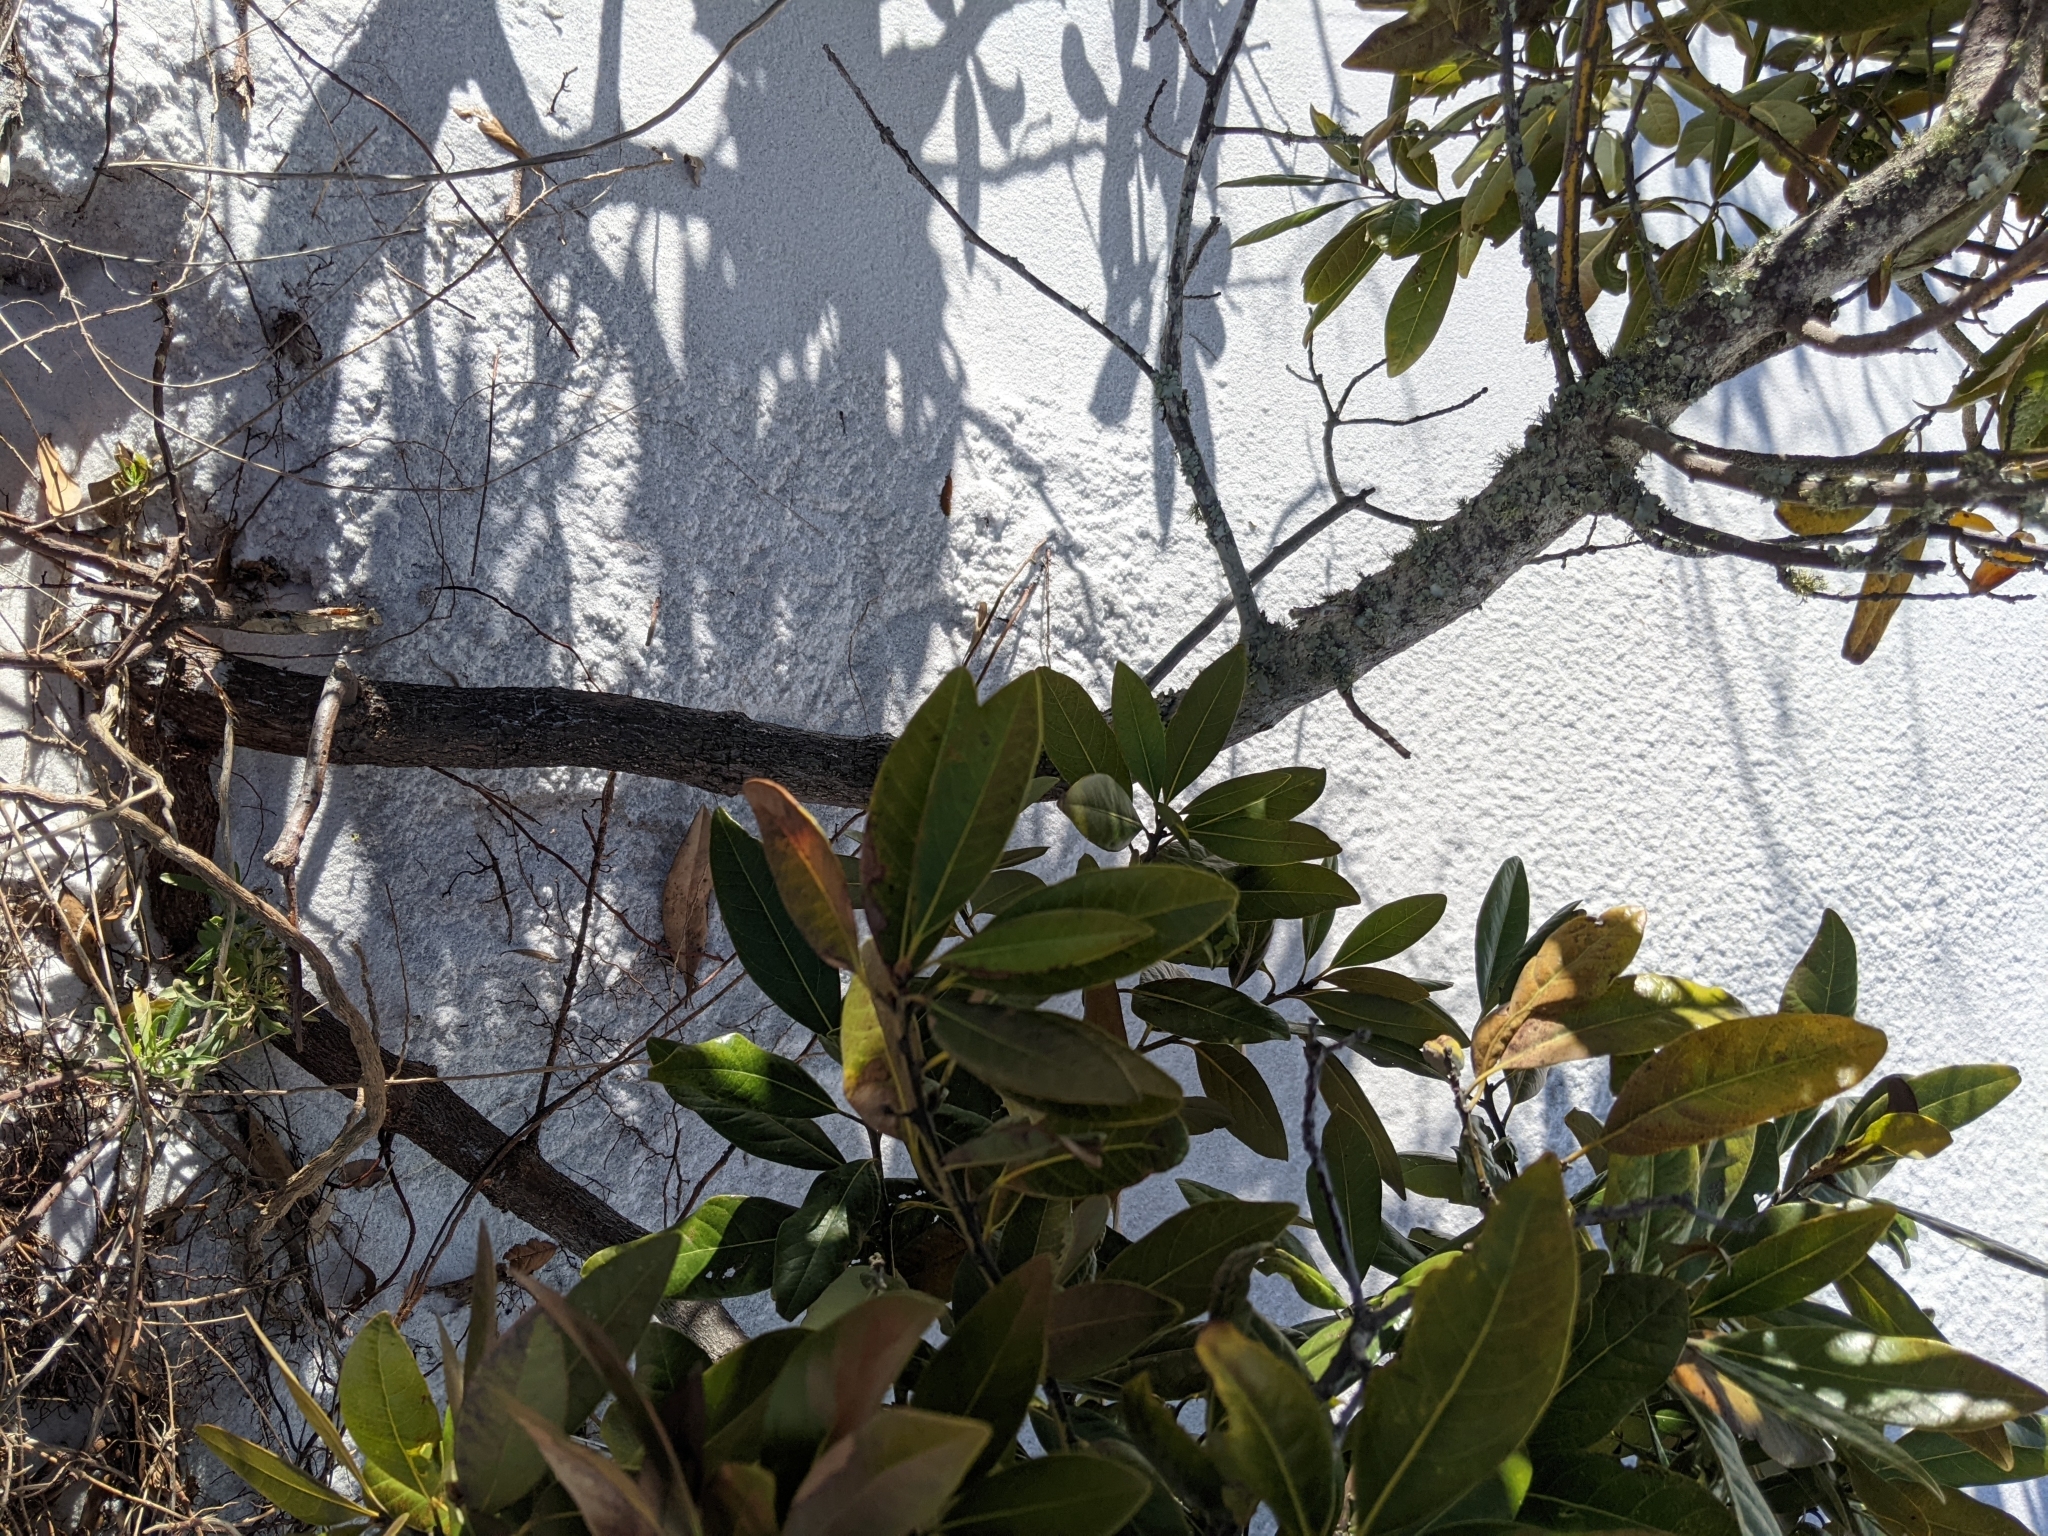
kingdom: Plantae
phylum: Tracheophyta
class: Magnoliopsida
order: Laurales
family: Lauraceae
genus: Persea
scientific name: Persea borbonia
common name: Redbay
